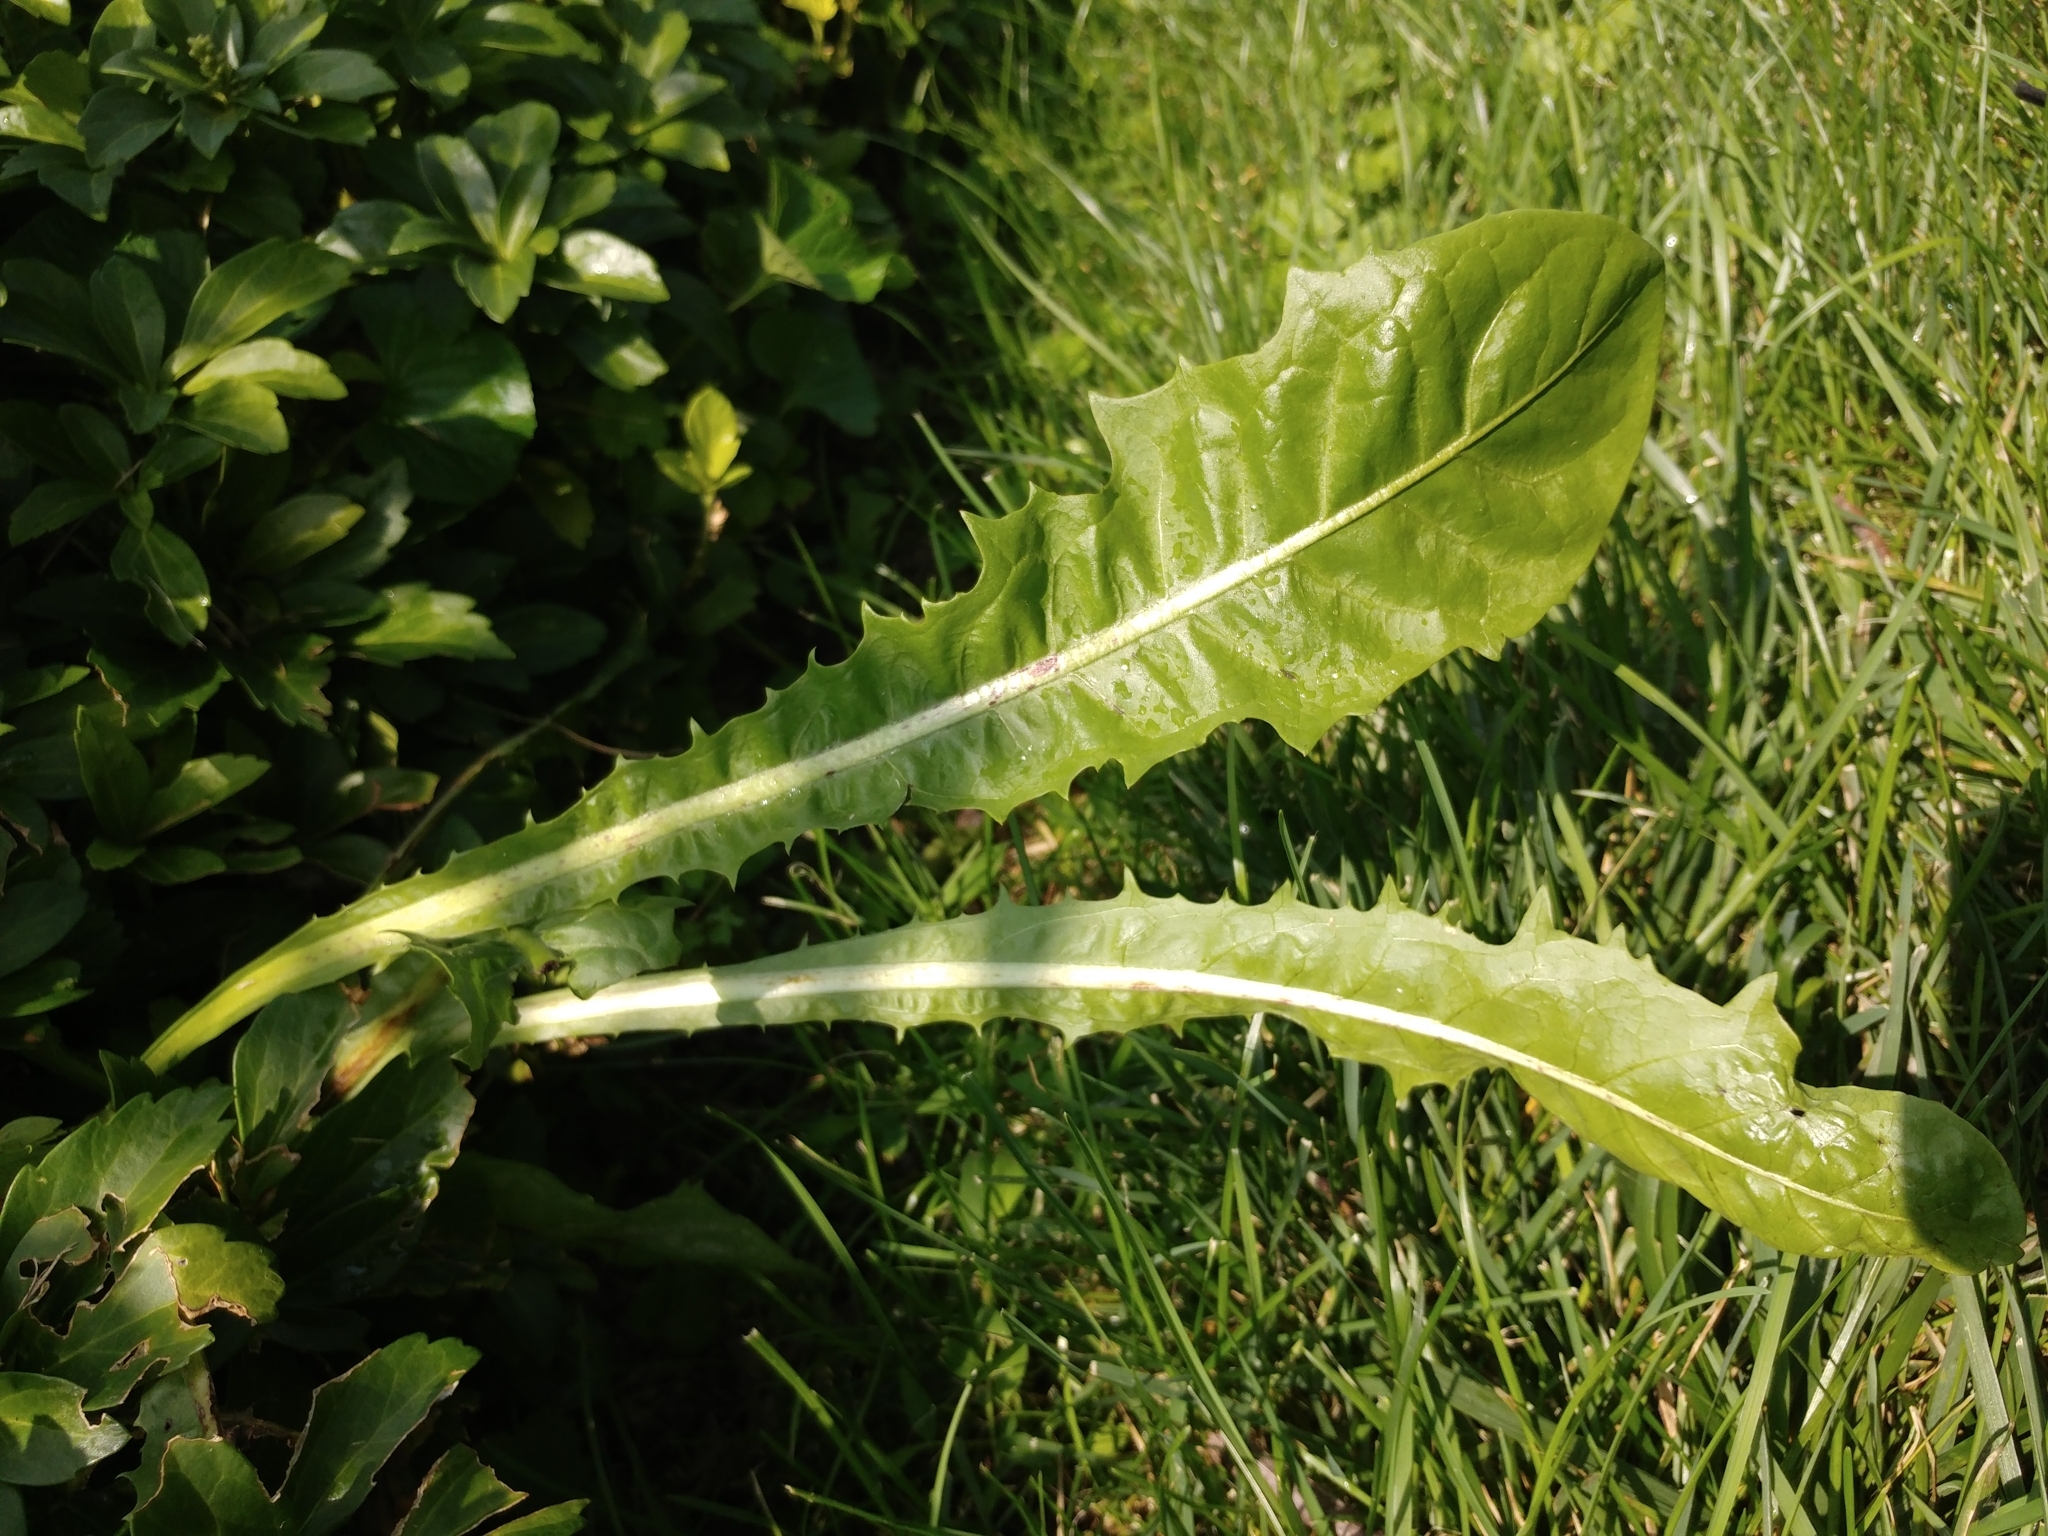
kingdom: Plantae
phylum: Tracheophyta
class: Magnoliopsida
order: Asterales
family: Asteraceae
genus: Cichorium
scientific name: Cichorium intybus
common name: Chicory
